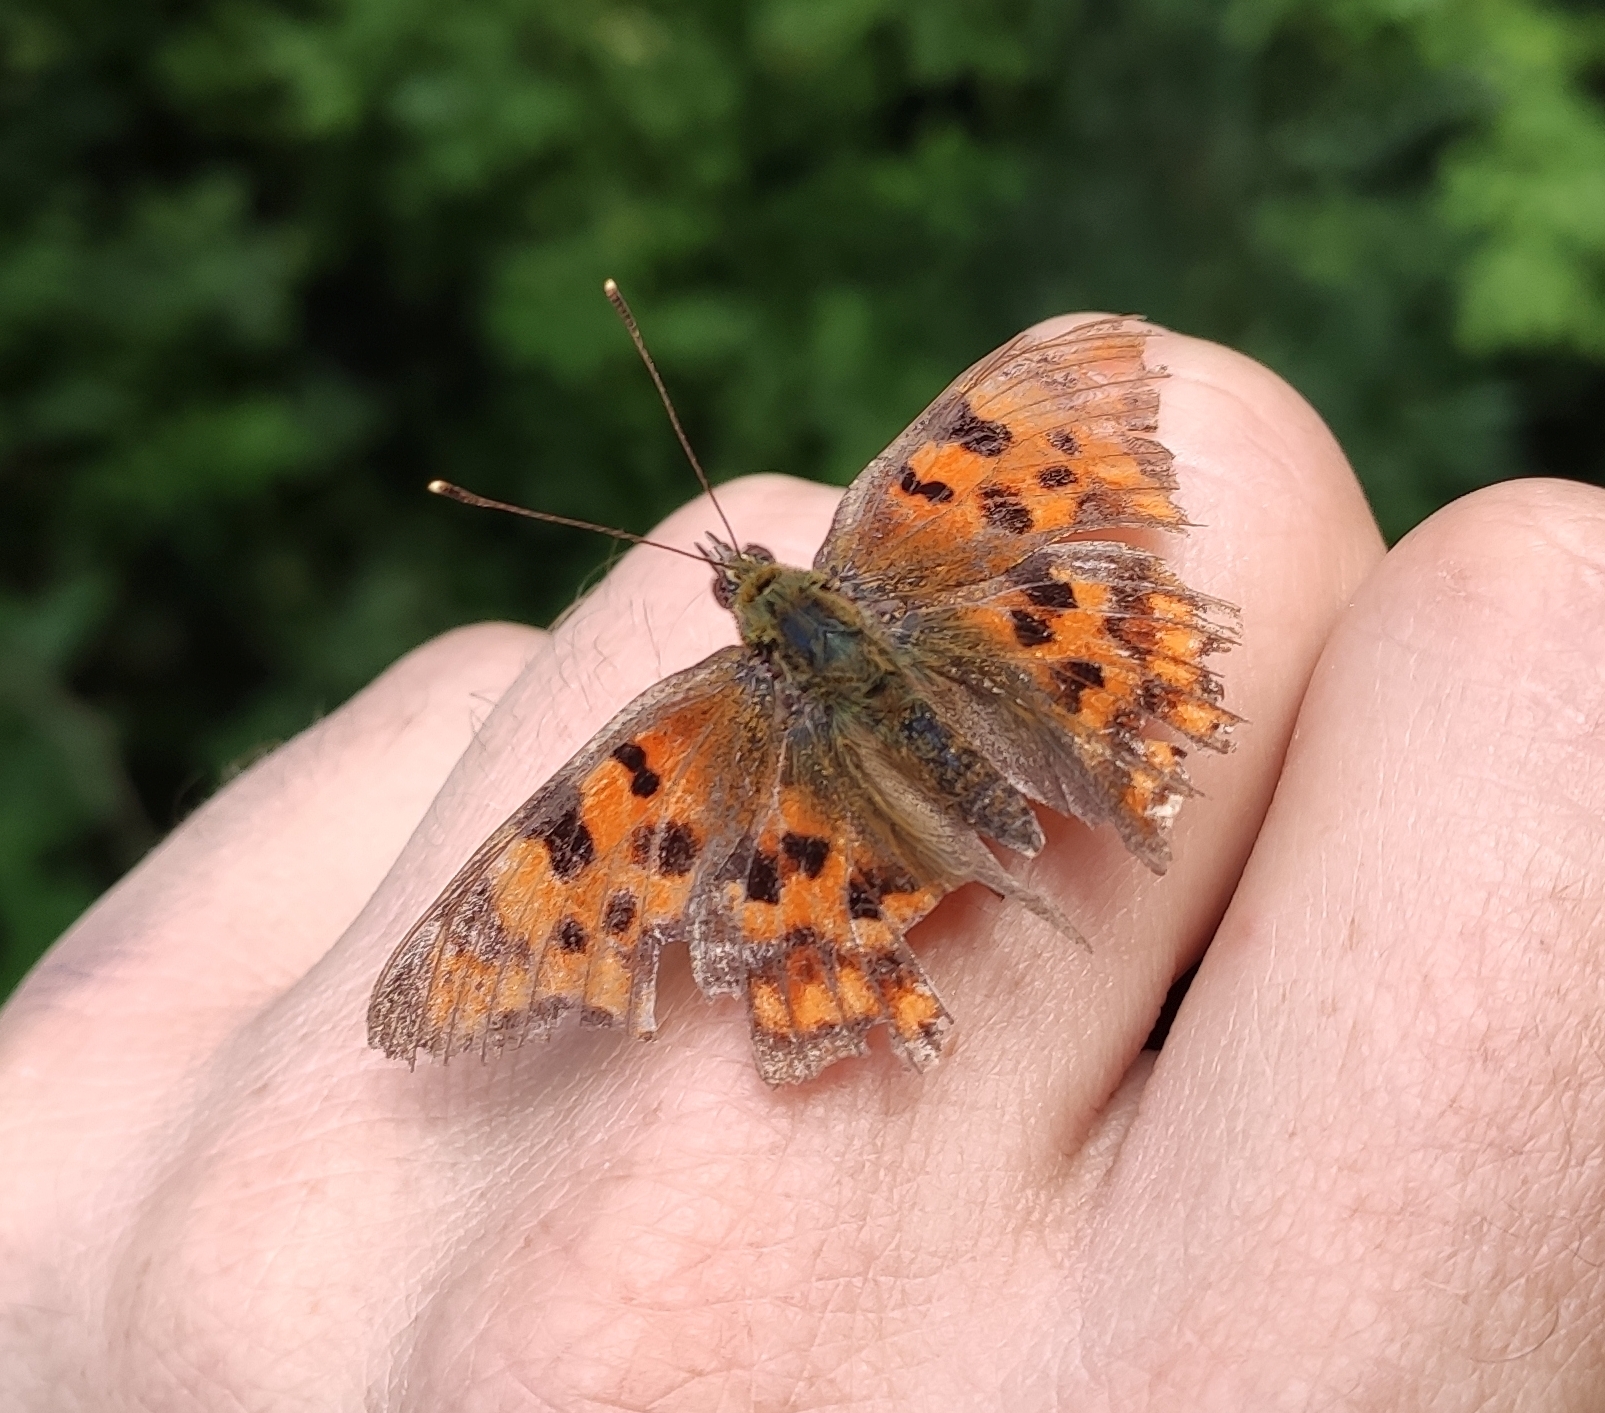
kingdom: Animalia
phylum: Arthropoda
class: Insecta
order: Lepidoptera
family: Nymphalidae
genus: Polygonia
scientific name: Polygonia c-album
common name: Comma
